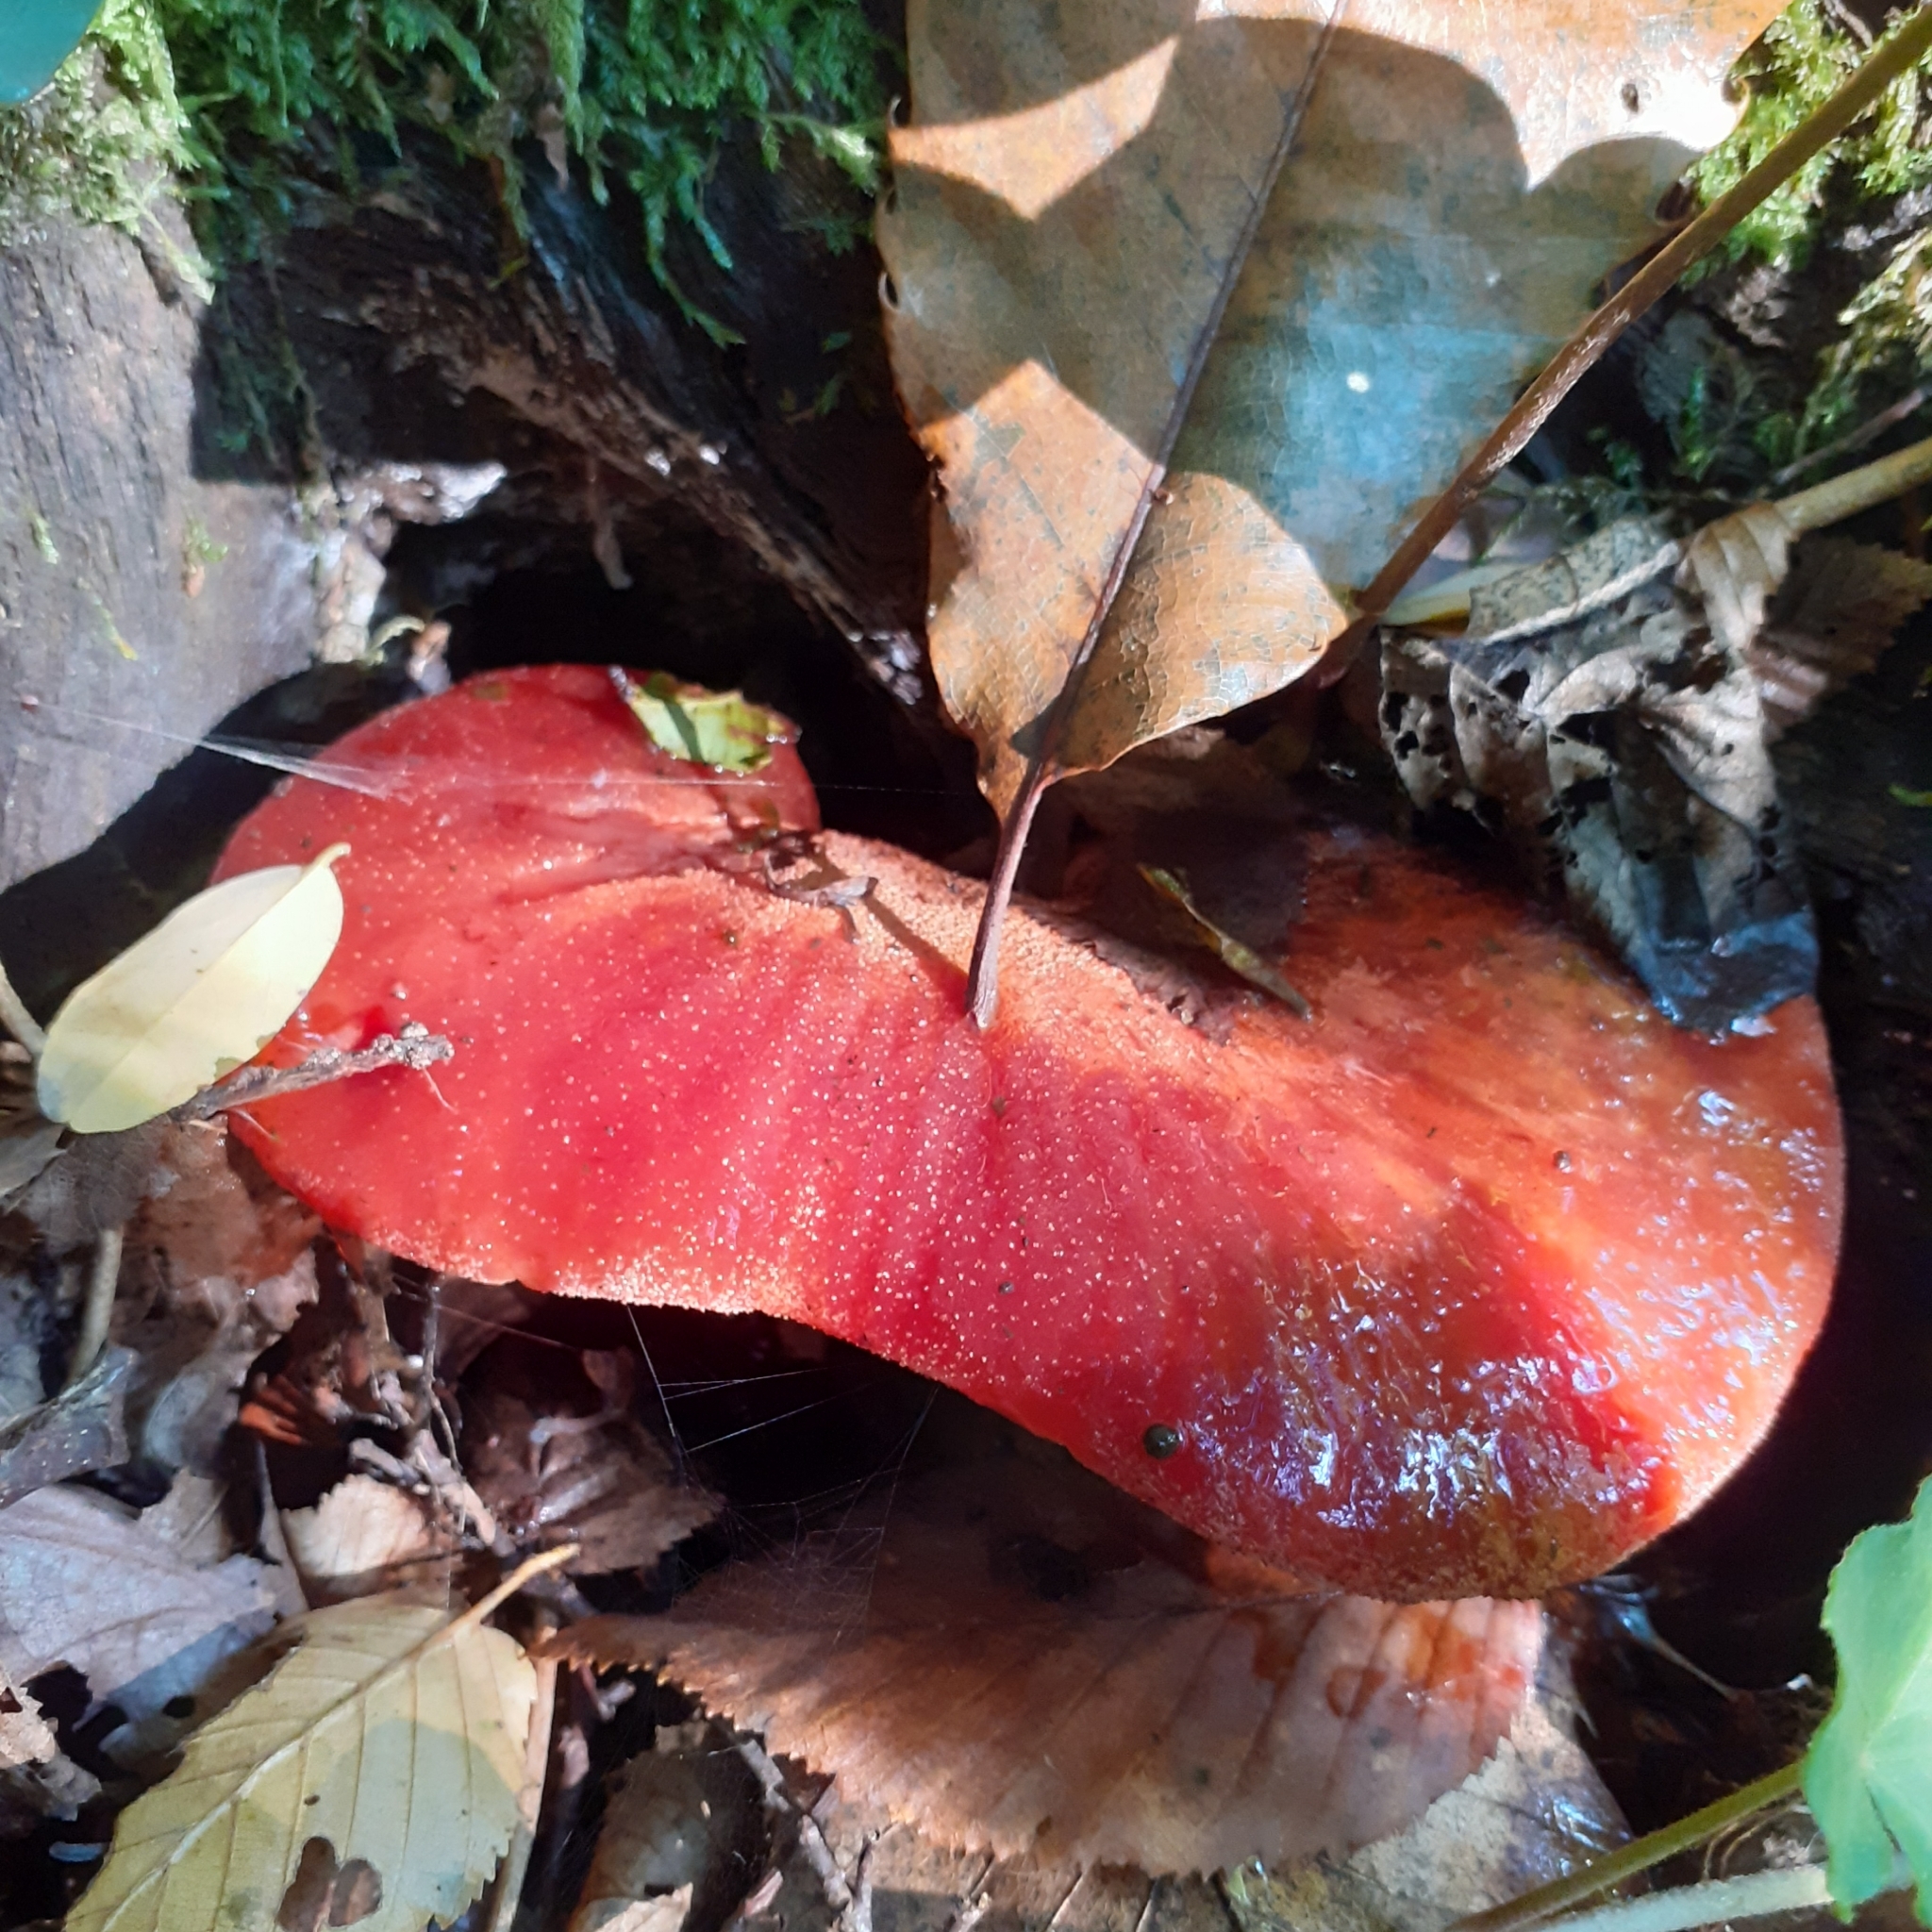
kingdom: Fungi
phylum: Basidiomycota
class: Agaricomycetes
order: Agaricales
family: Fistulinaceae
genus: Fistulina
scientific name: Fistulina hepatica
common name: Beef-steak fungus
